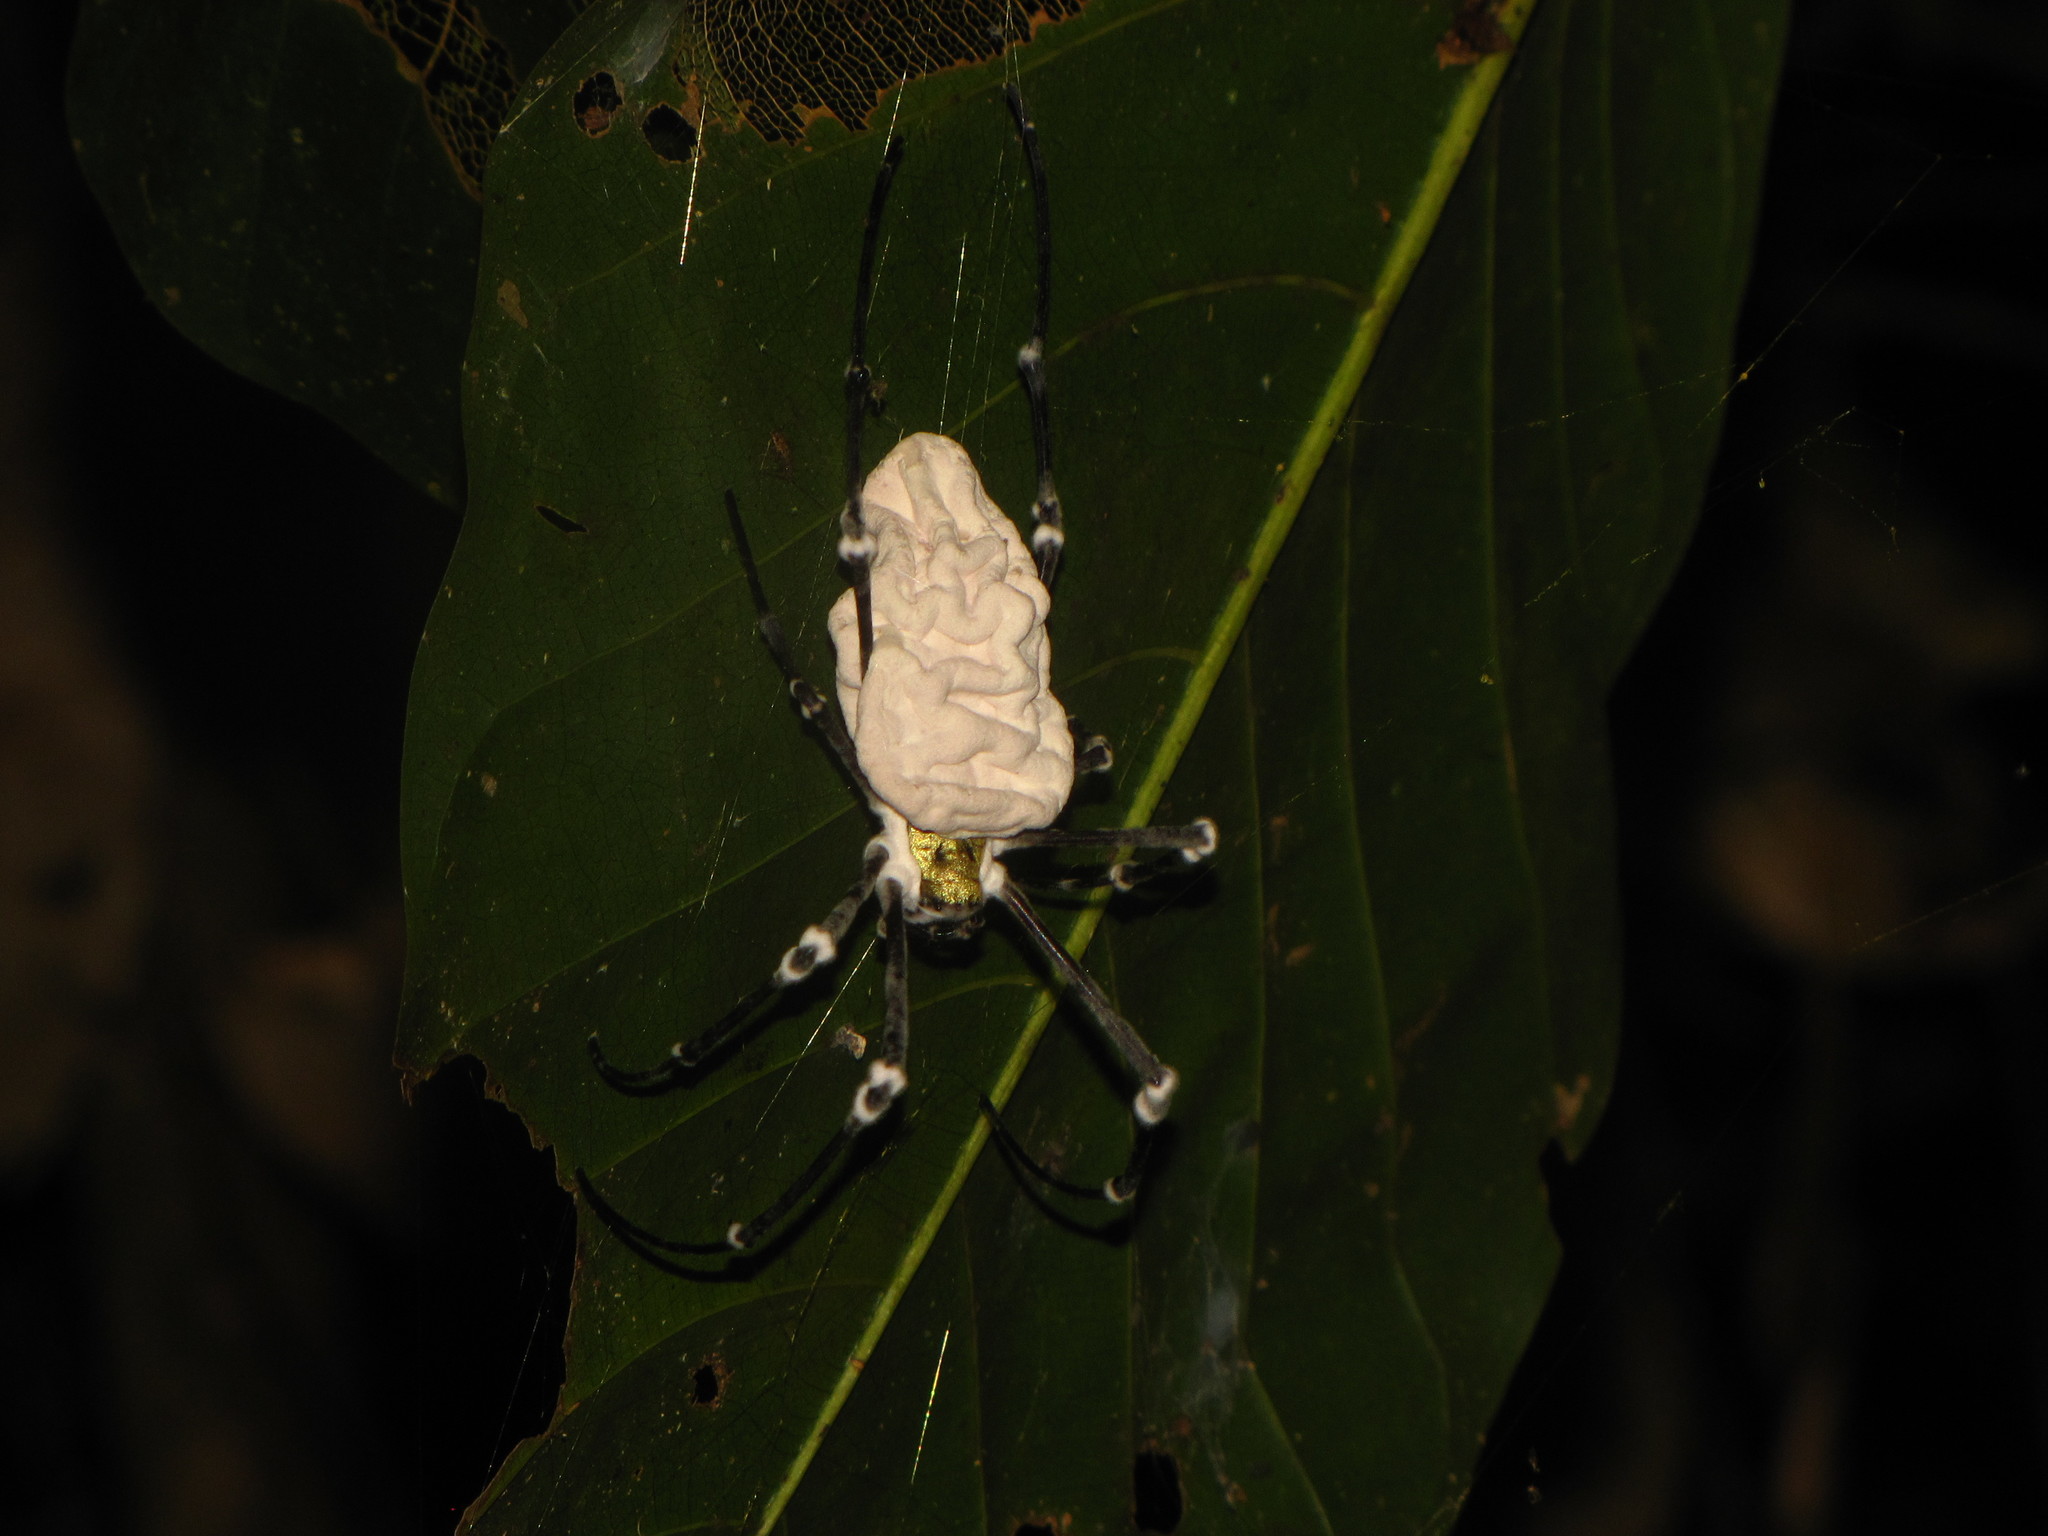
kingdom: Animalia
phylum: Arthropoda
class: Arachnida
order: Araneae
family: Araneidae
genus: Nephila
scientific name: Nephila pilipes
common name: Giant golden orb weaver
